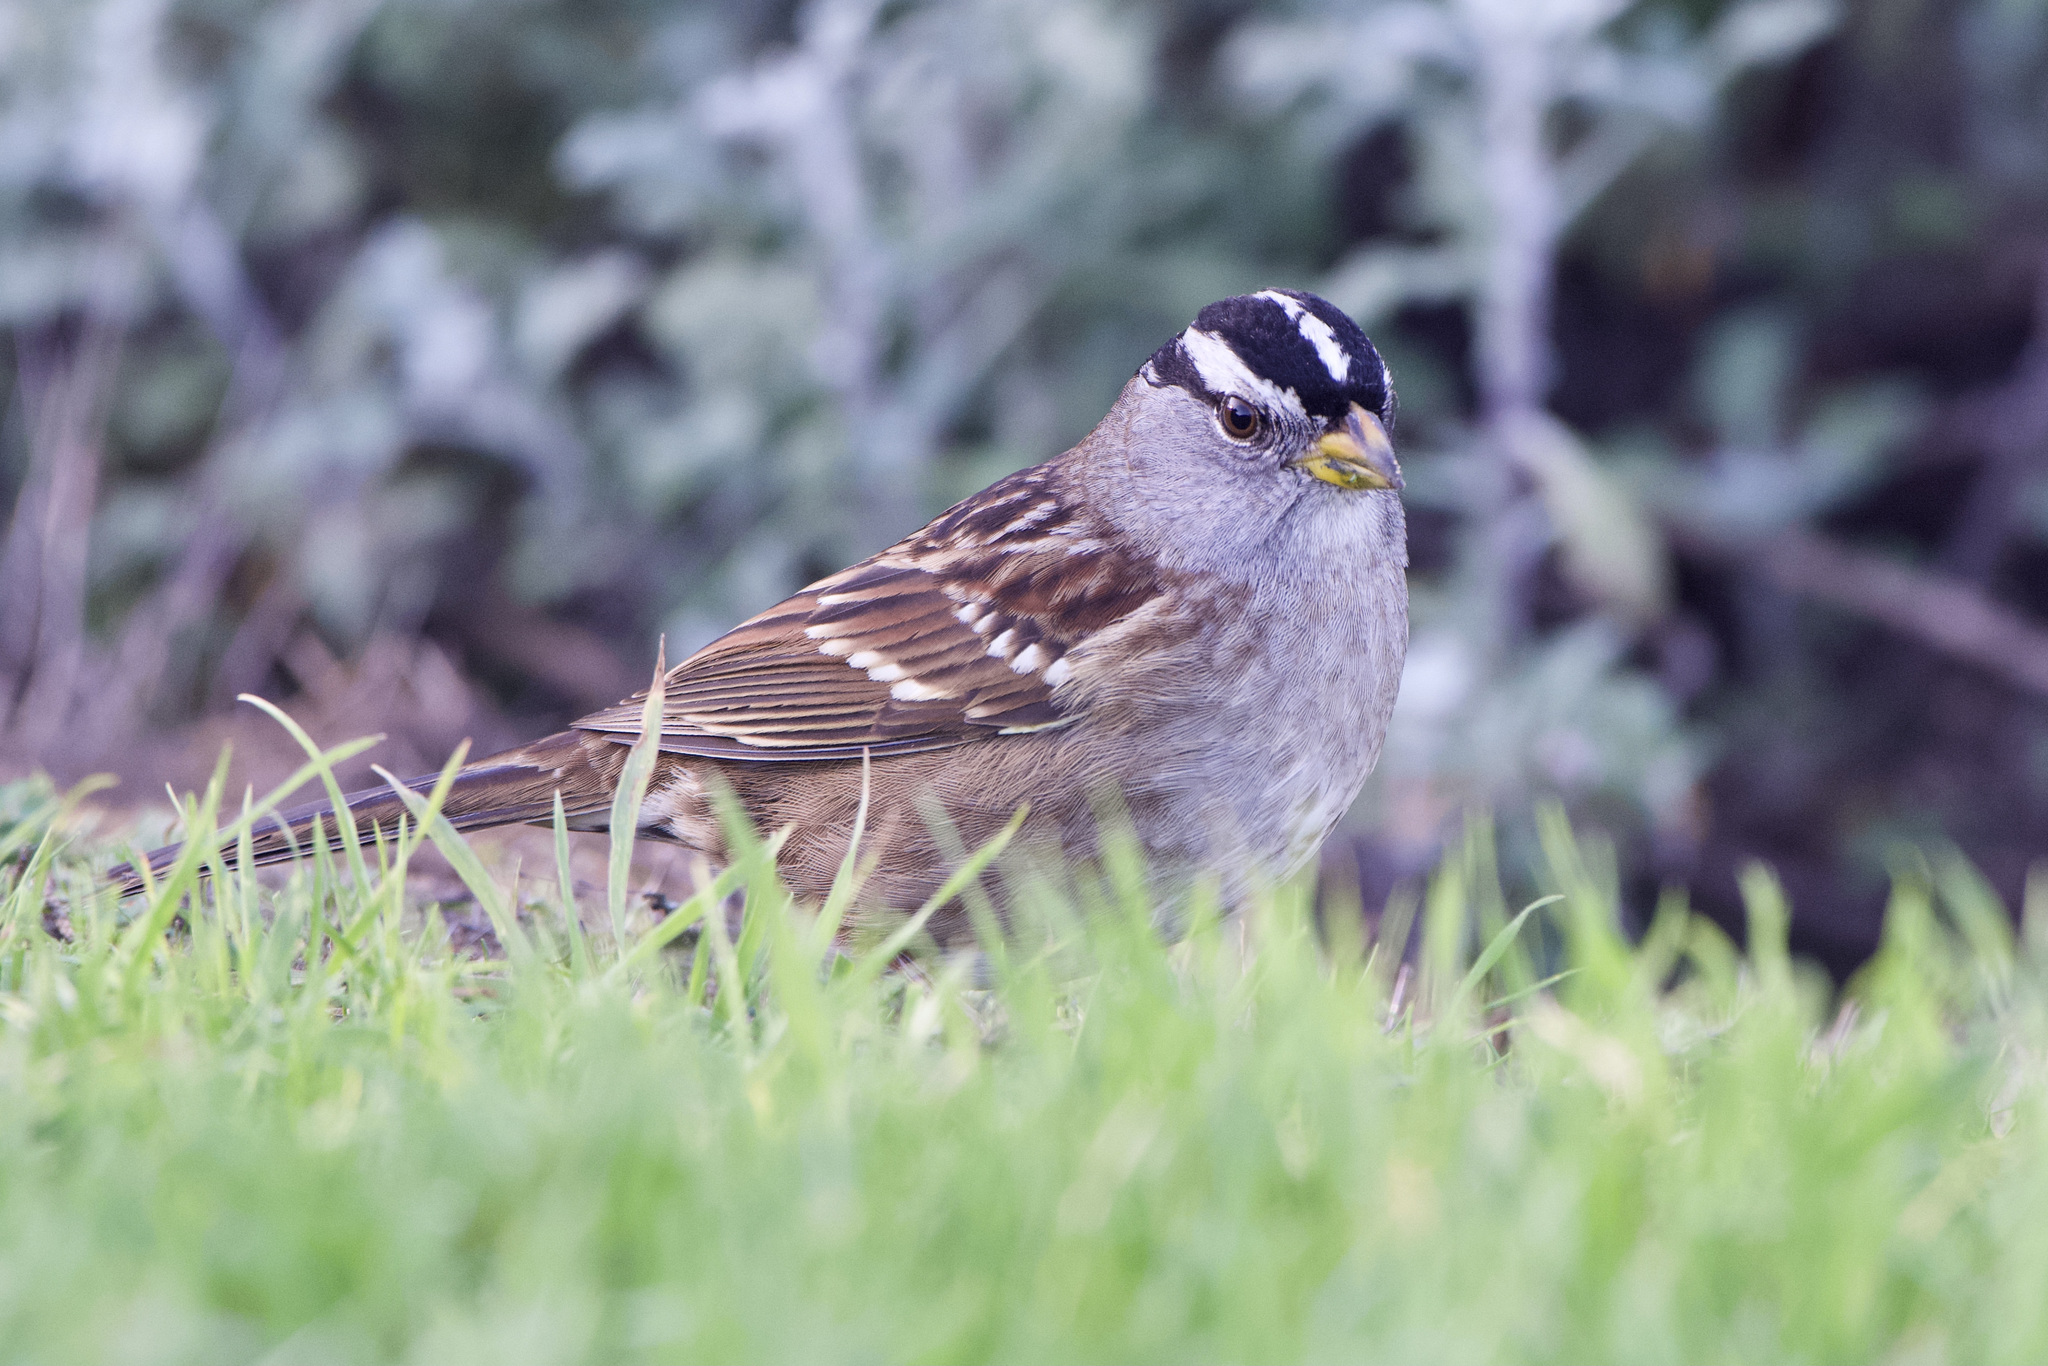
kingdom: Animalia
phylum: Chordata
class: Aves
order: Passeriformes
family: Passerellidae
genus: Zonotrichia
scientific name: Zonotrichia leucophrys
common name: White-crowned sparrow
